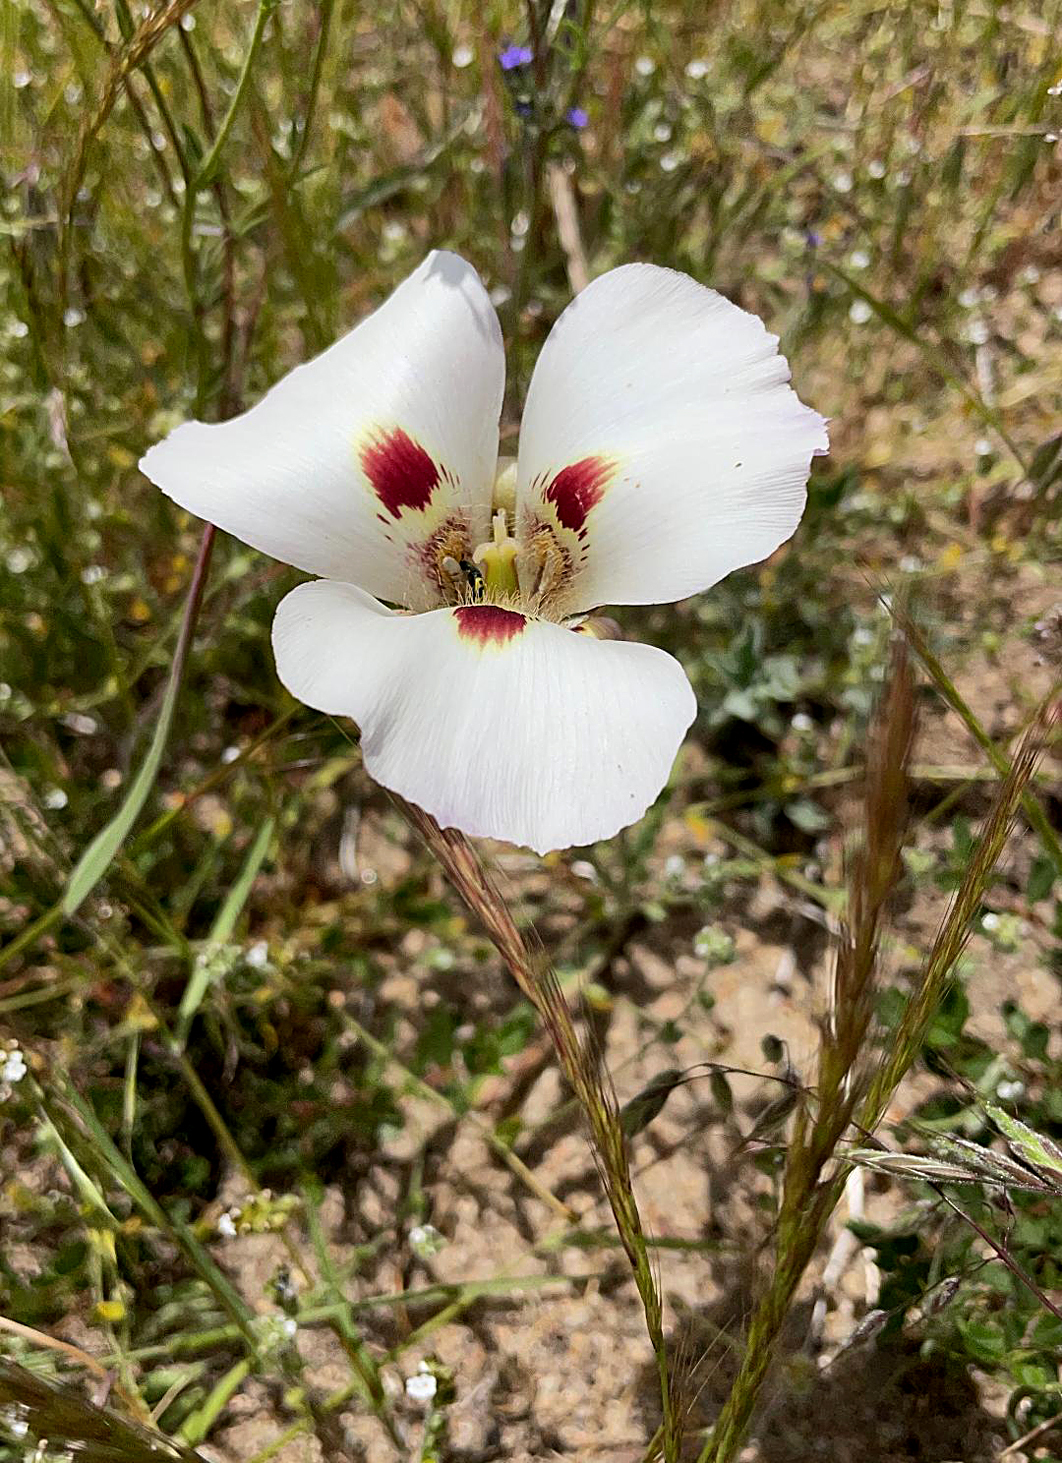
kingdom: Plantae
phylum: Tracheophyta
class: Liliopsida
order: Liliales
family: Liliaceae
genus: Calochortus
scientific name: Calochortus venustus
